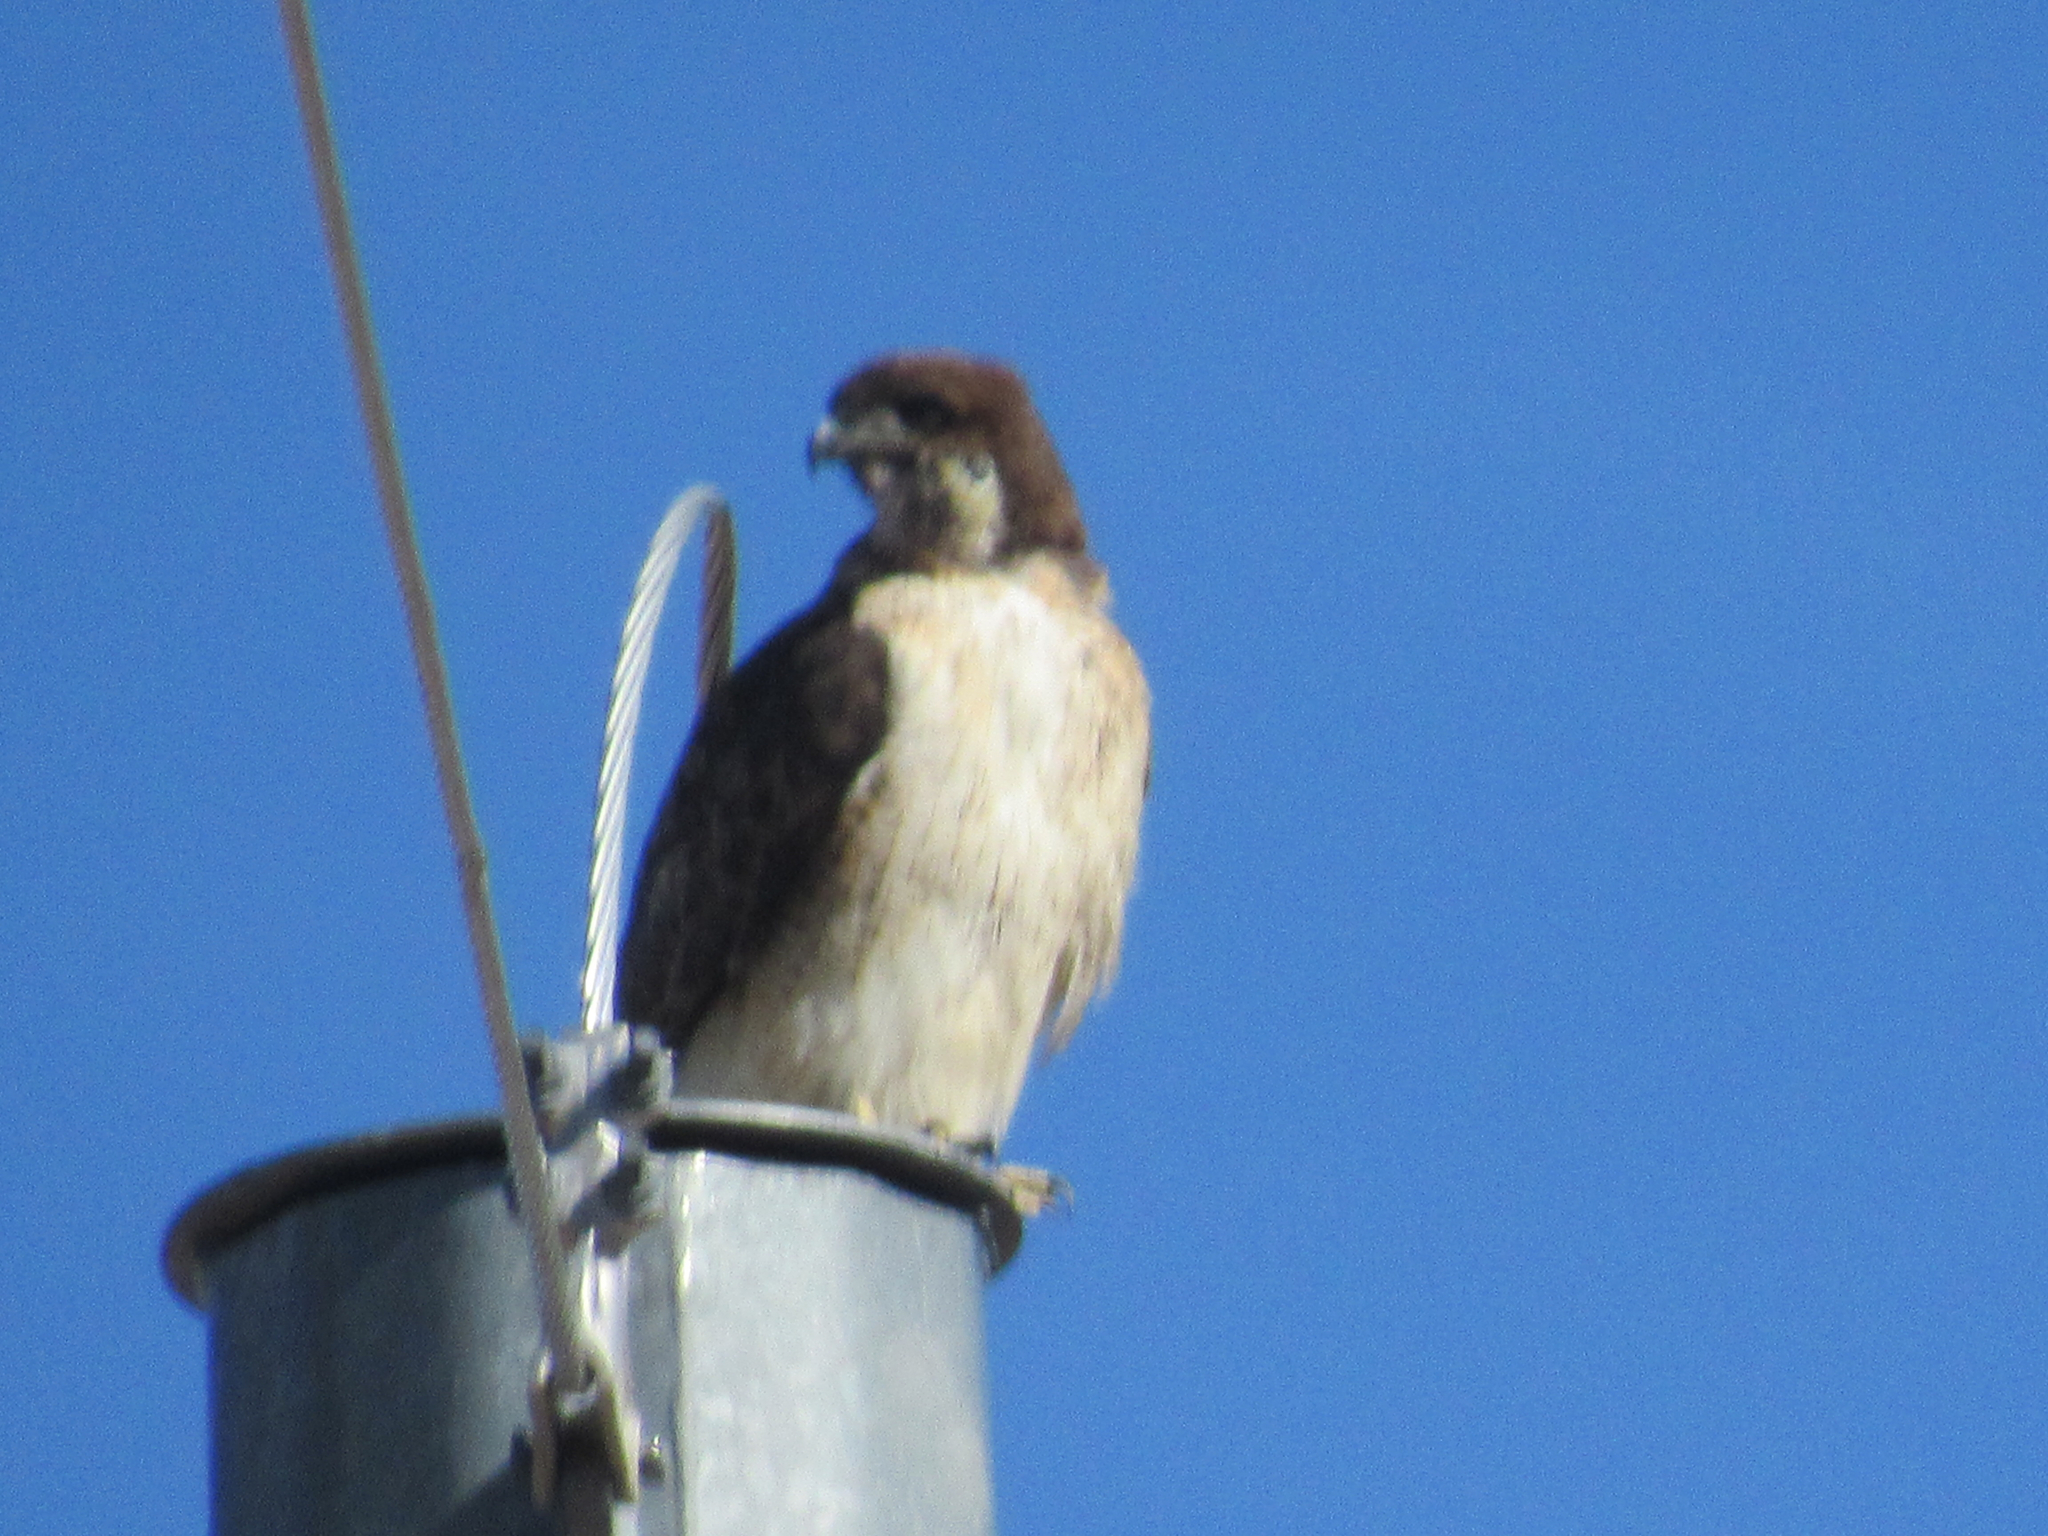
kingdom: Animalia
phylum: Chordata
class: Aves
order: Accipitriformes
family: Accipitridae
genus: Buteo
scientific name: Buteo jamaicensis
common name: Red-tailed hawk
